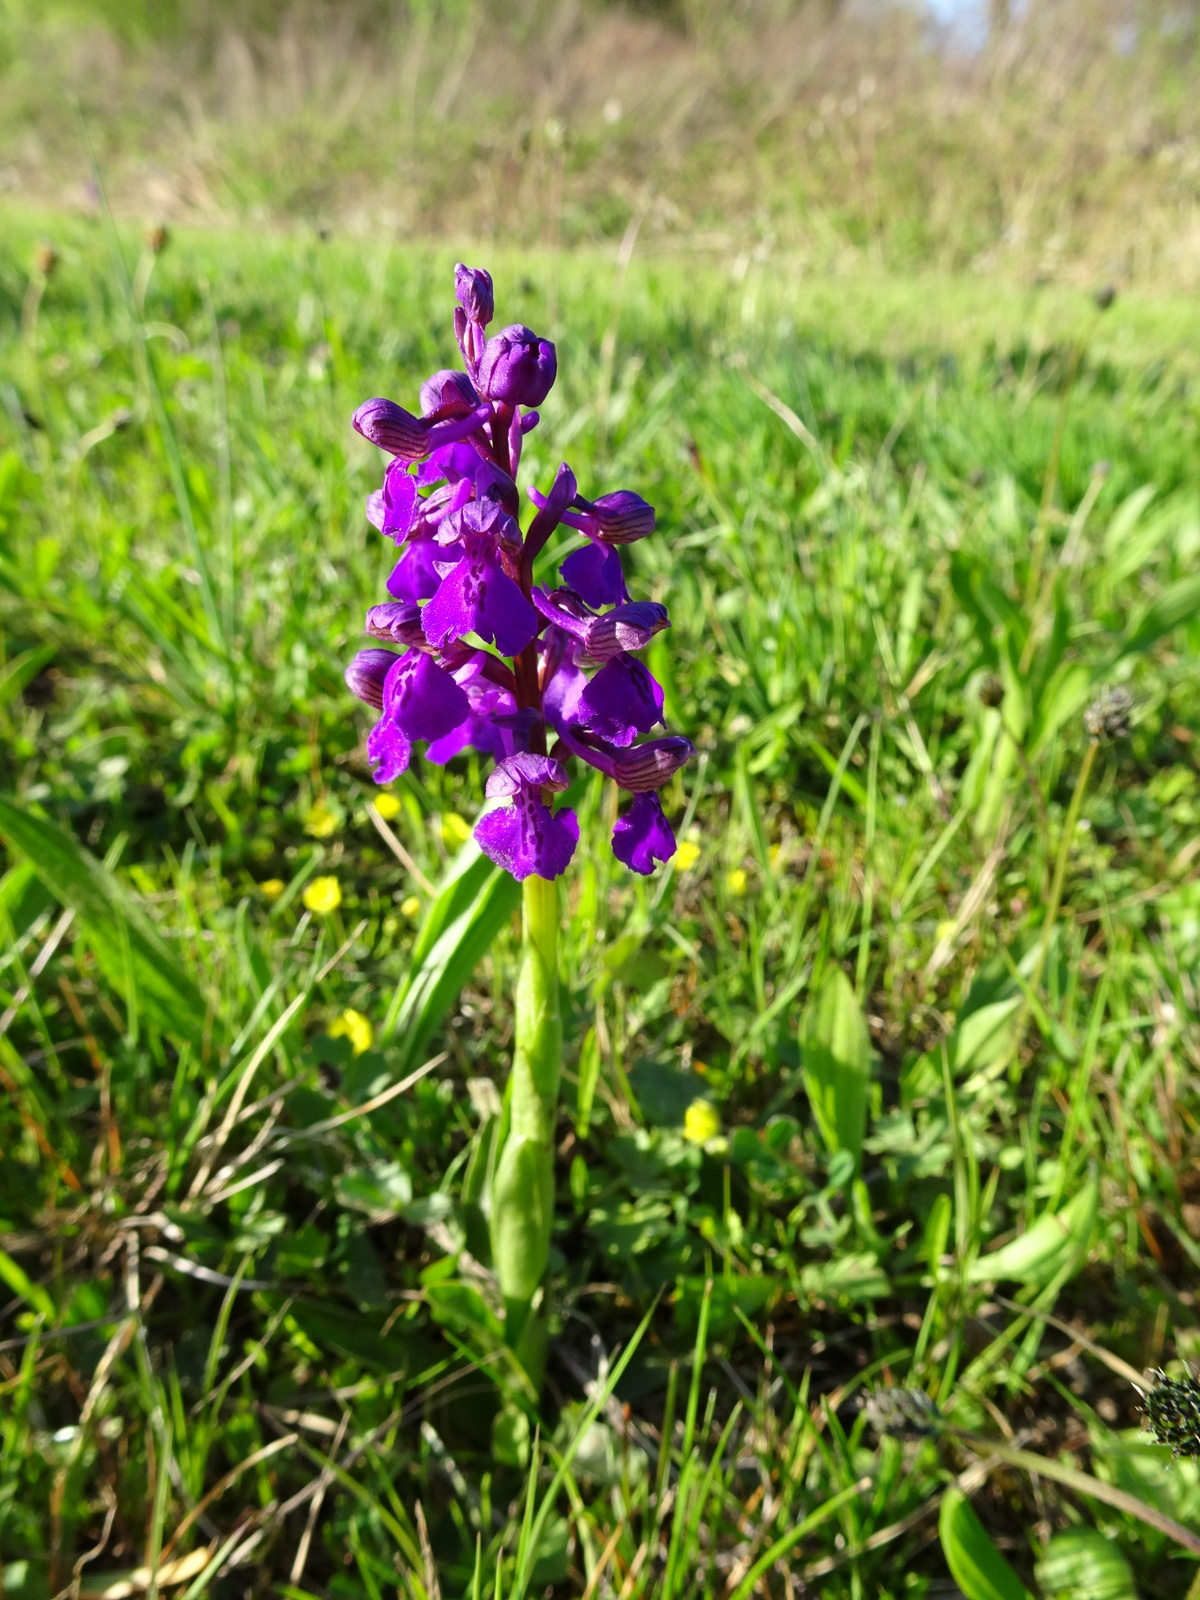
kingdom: Plantae
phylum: Tracheophyta
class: Liliopsida
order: Asparagales
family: Orchidaceae
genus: Anacamptis
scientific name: Anacamptis morio
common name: Green-winged orchid
